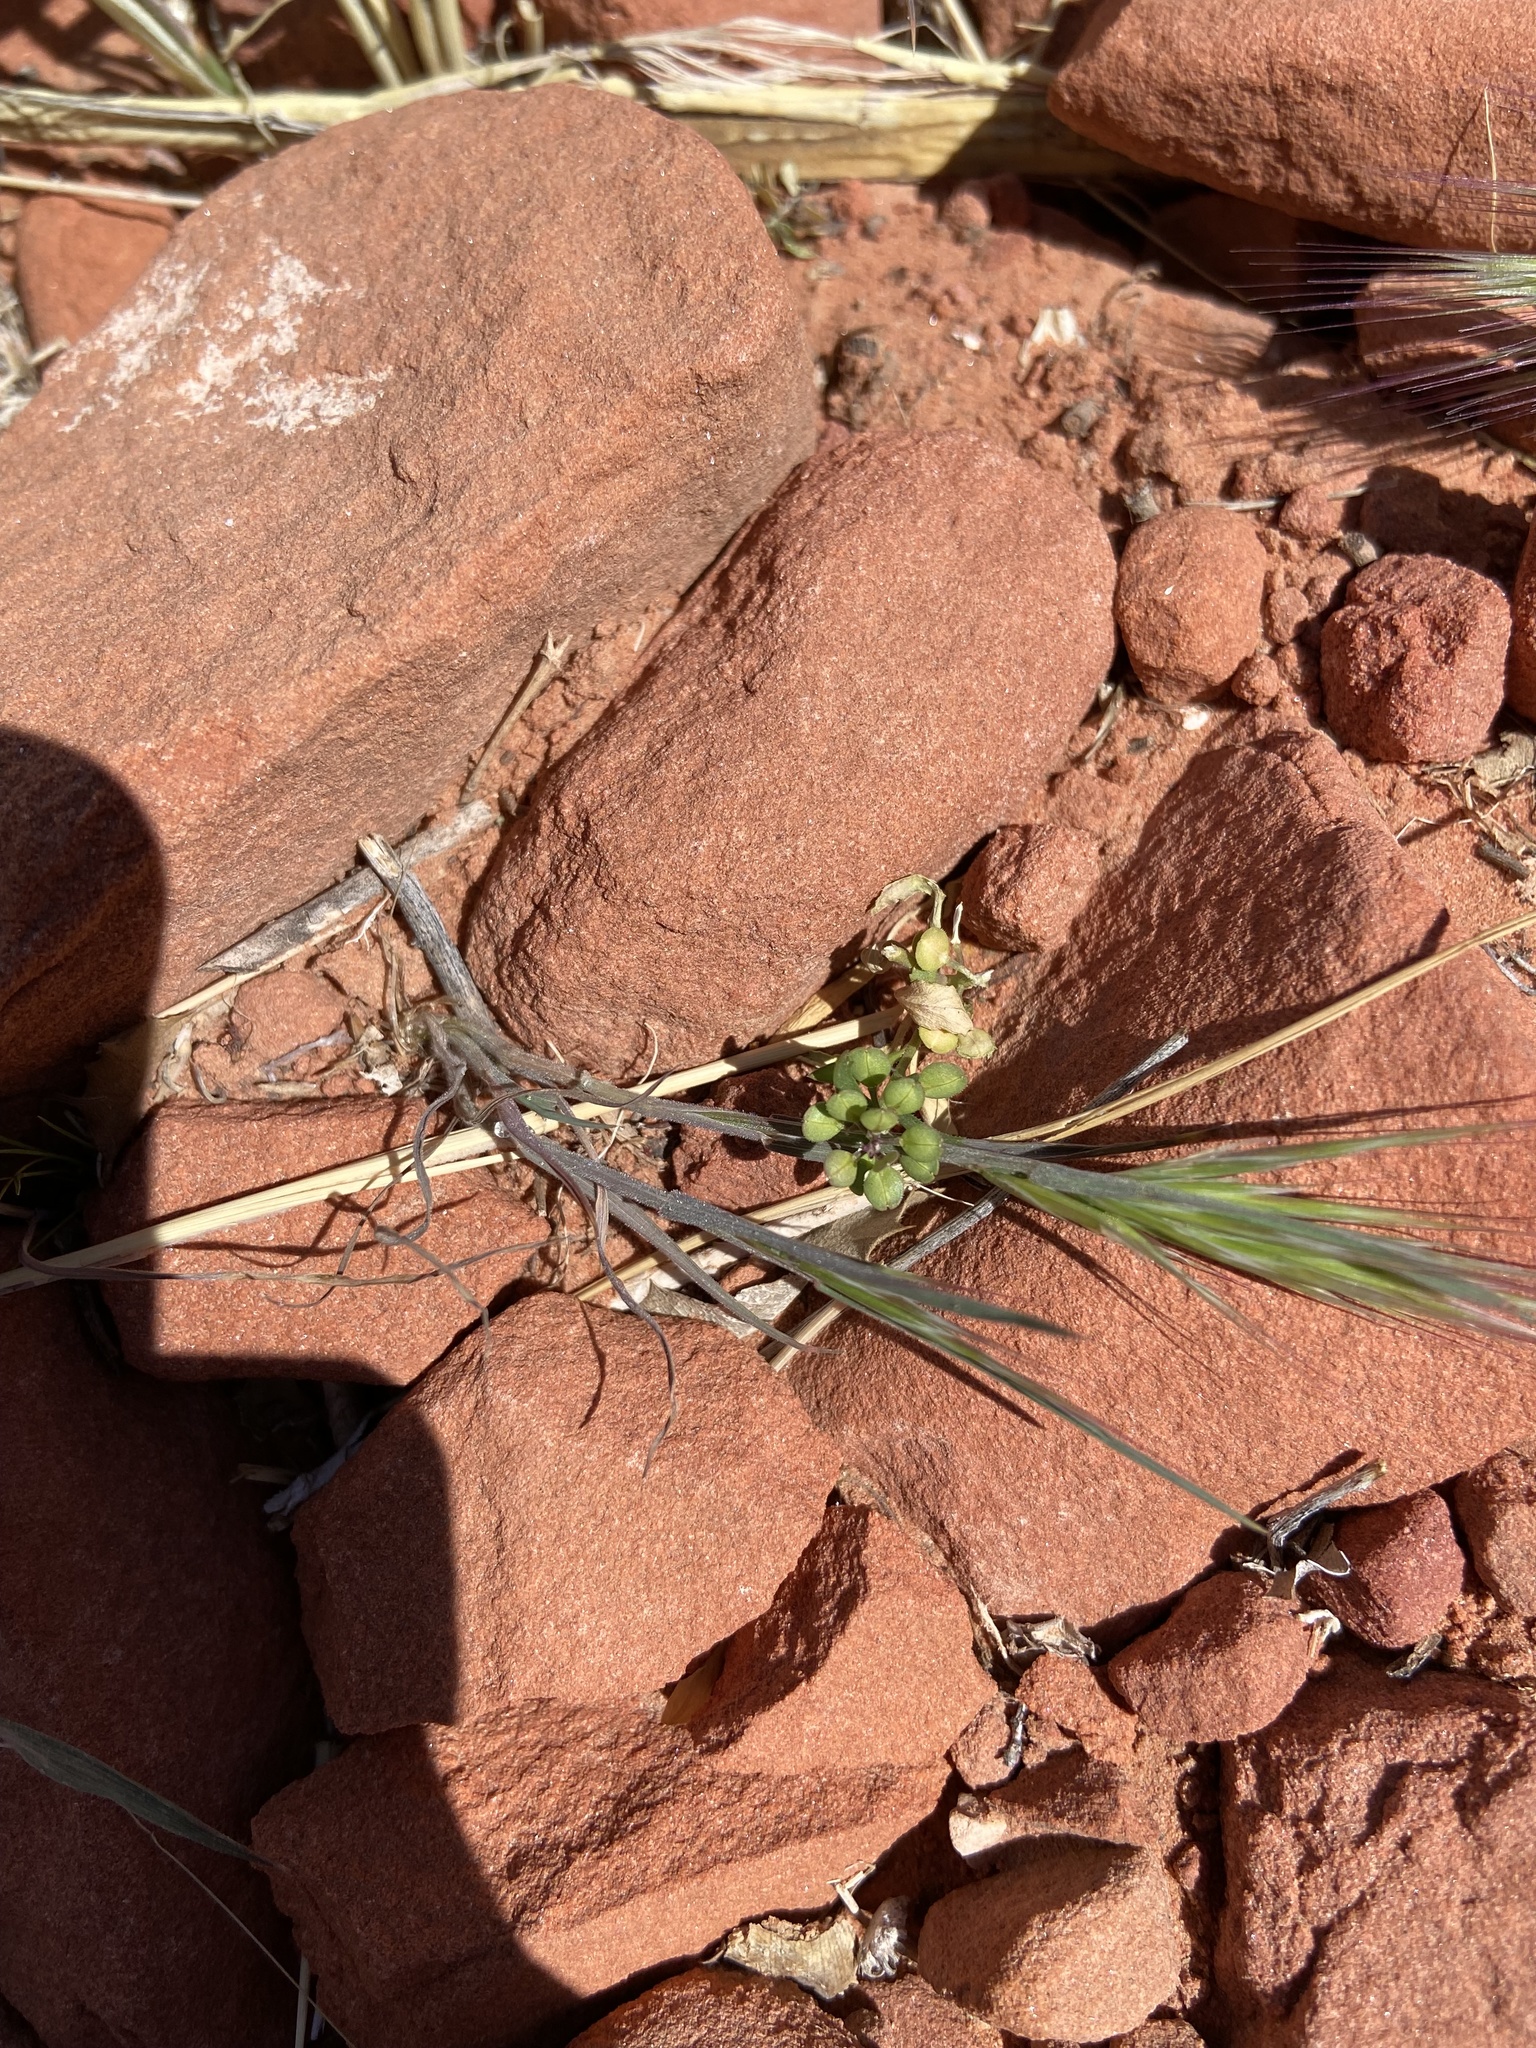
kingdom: Plantae
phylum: Tracheophyta
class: Magnoliopsida
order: Brassicales
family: Brassicaceae
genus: Lepidium
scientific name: Lepidium lasiocarpum
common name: Hairy-pod pepperwort
